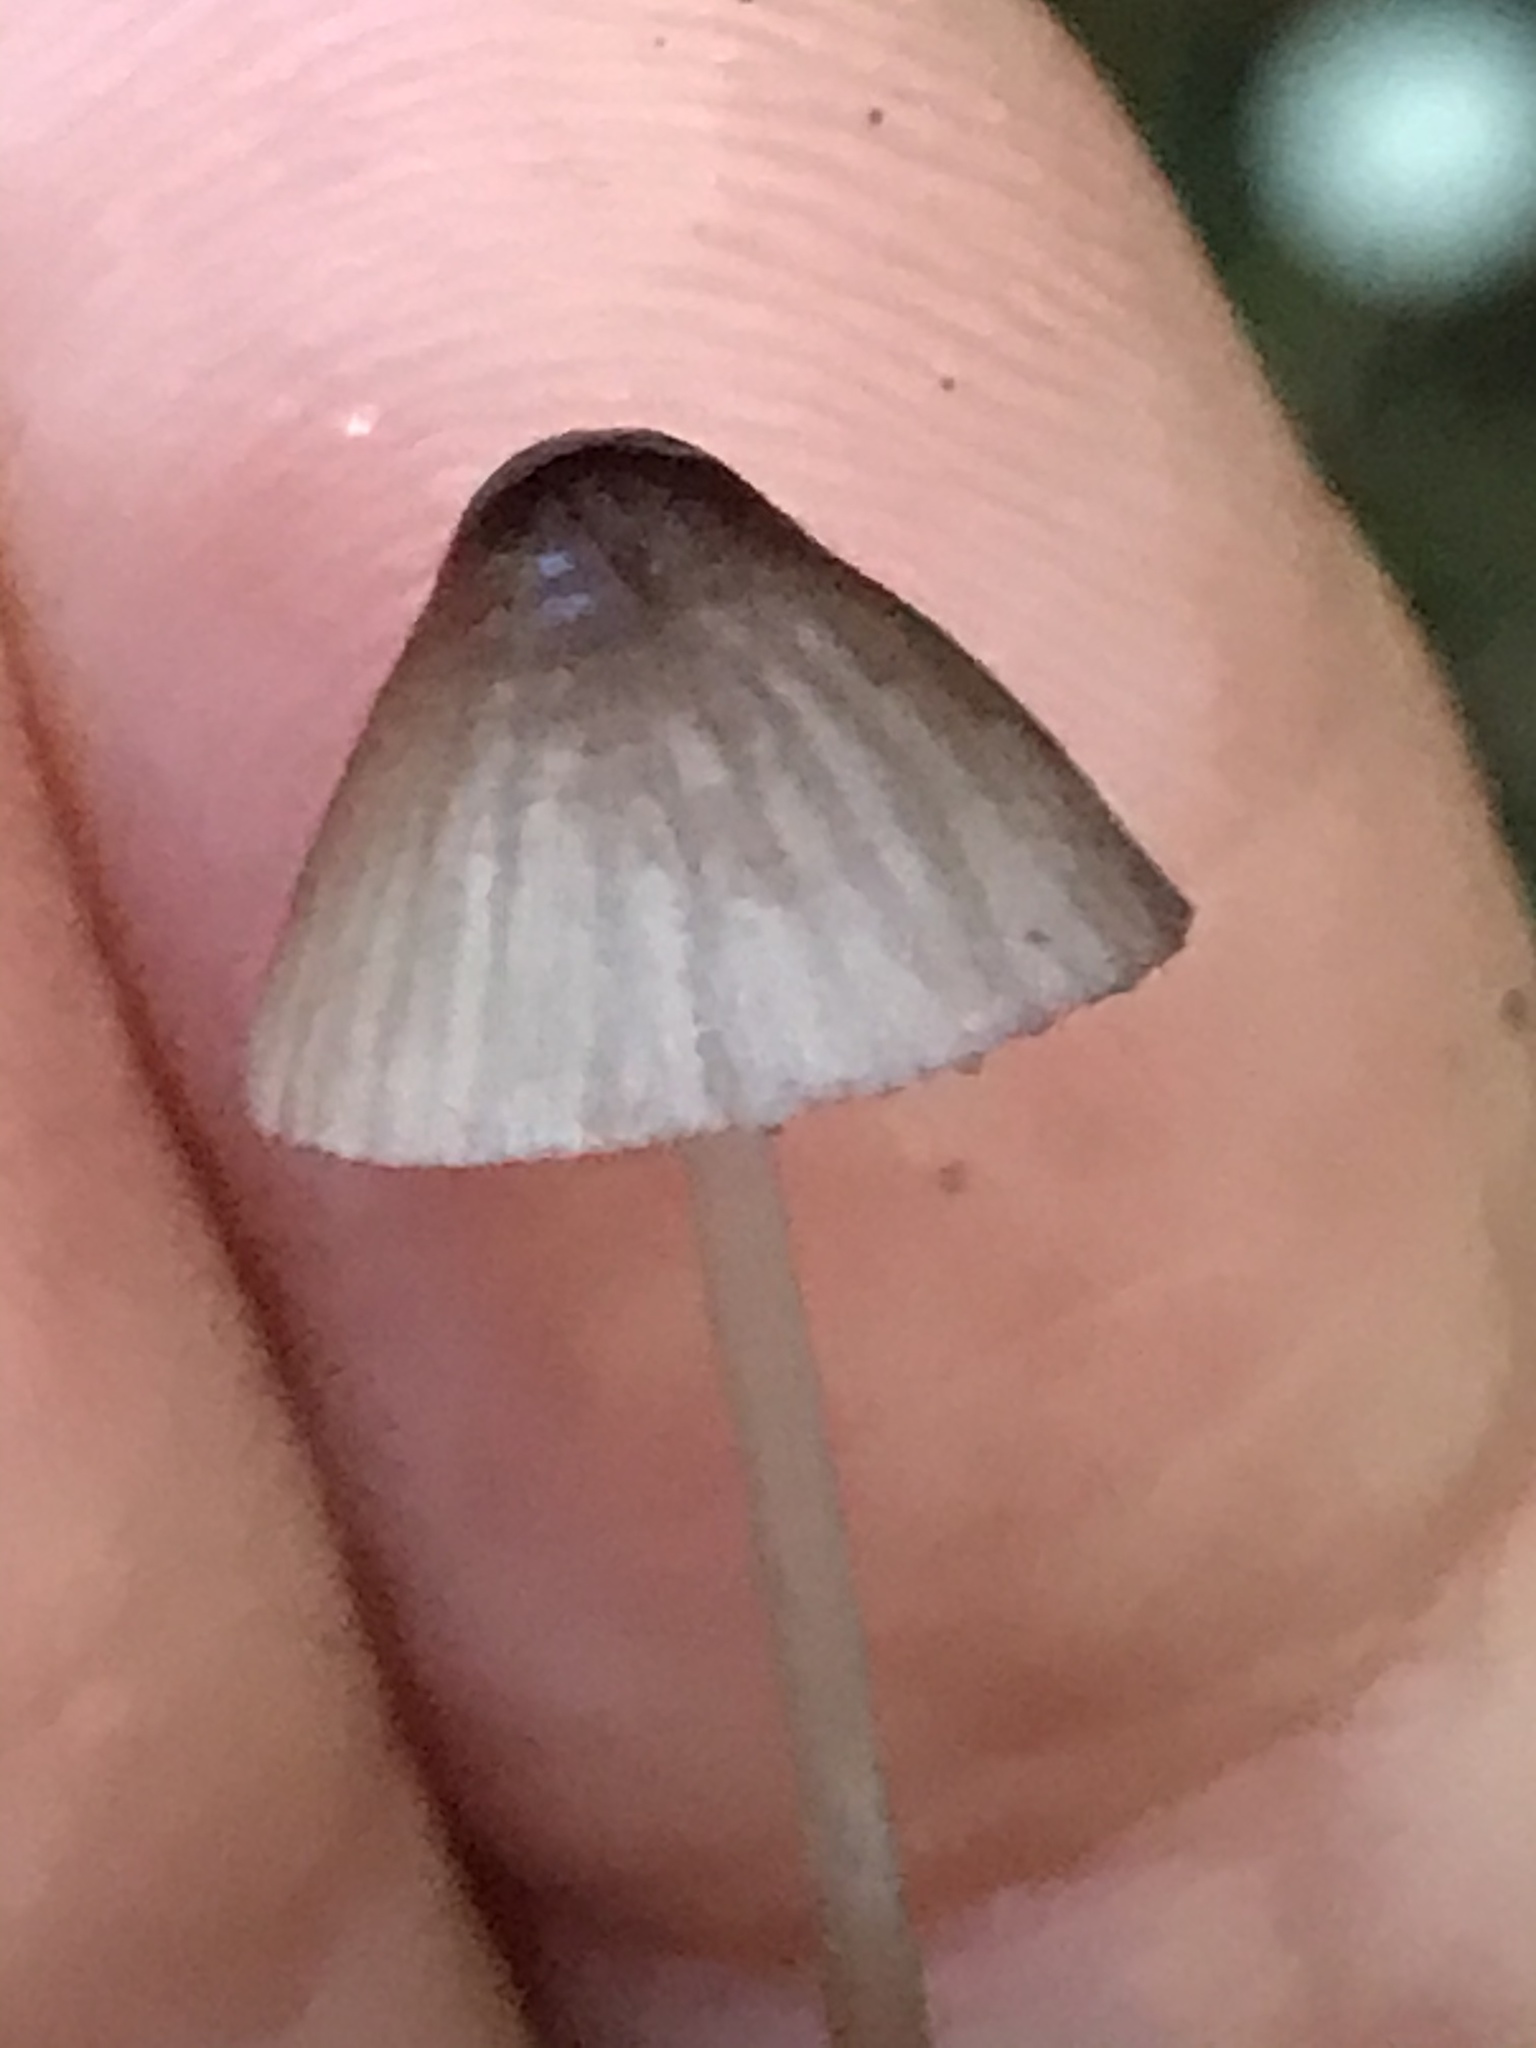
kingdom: Fungi
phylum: Basidiomycota
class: Agaricomycetes
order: Agaricales
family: Mycenaceae
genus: Mycena
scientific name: Mycena purpureofusca
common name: Purple edge bonnet
